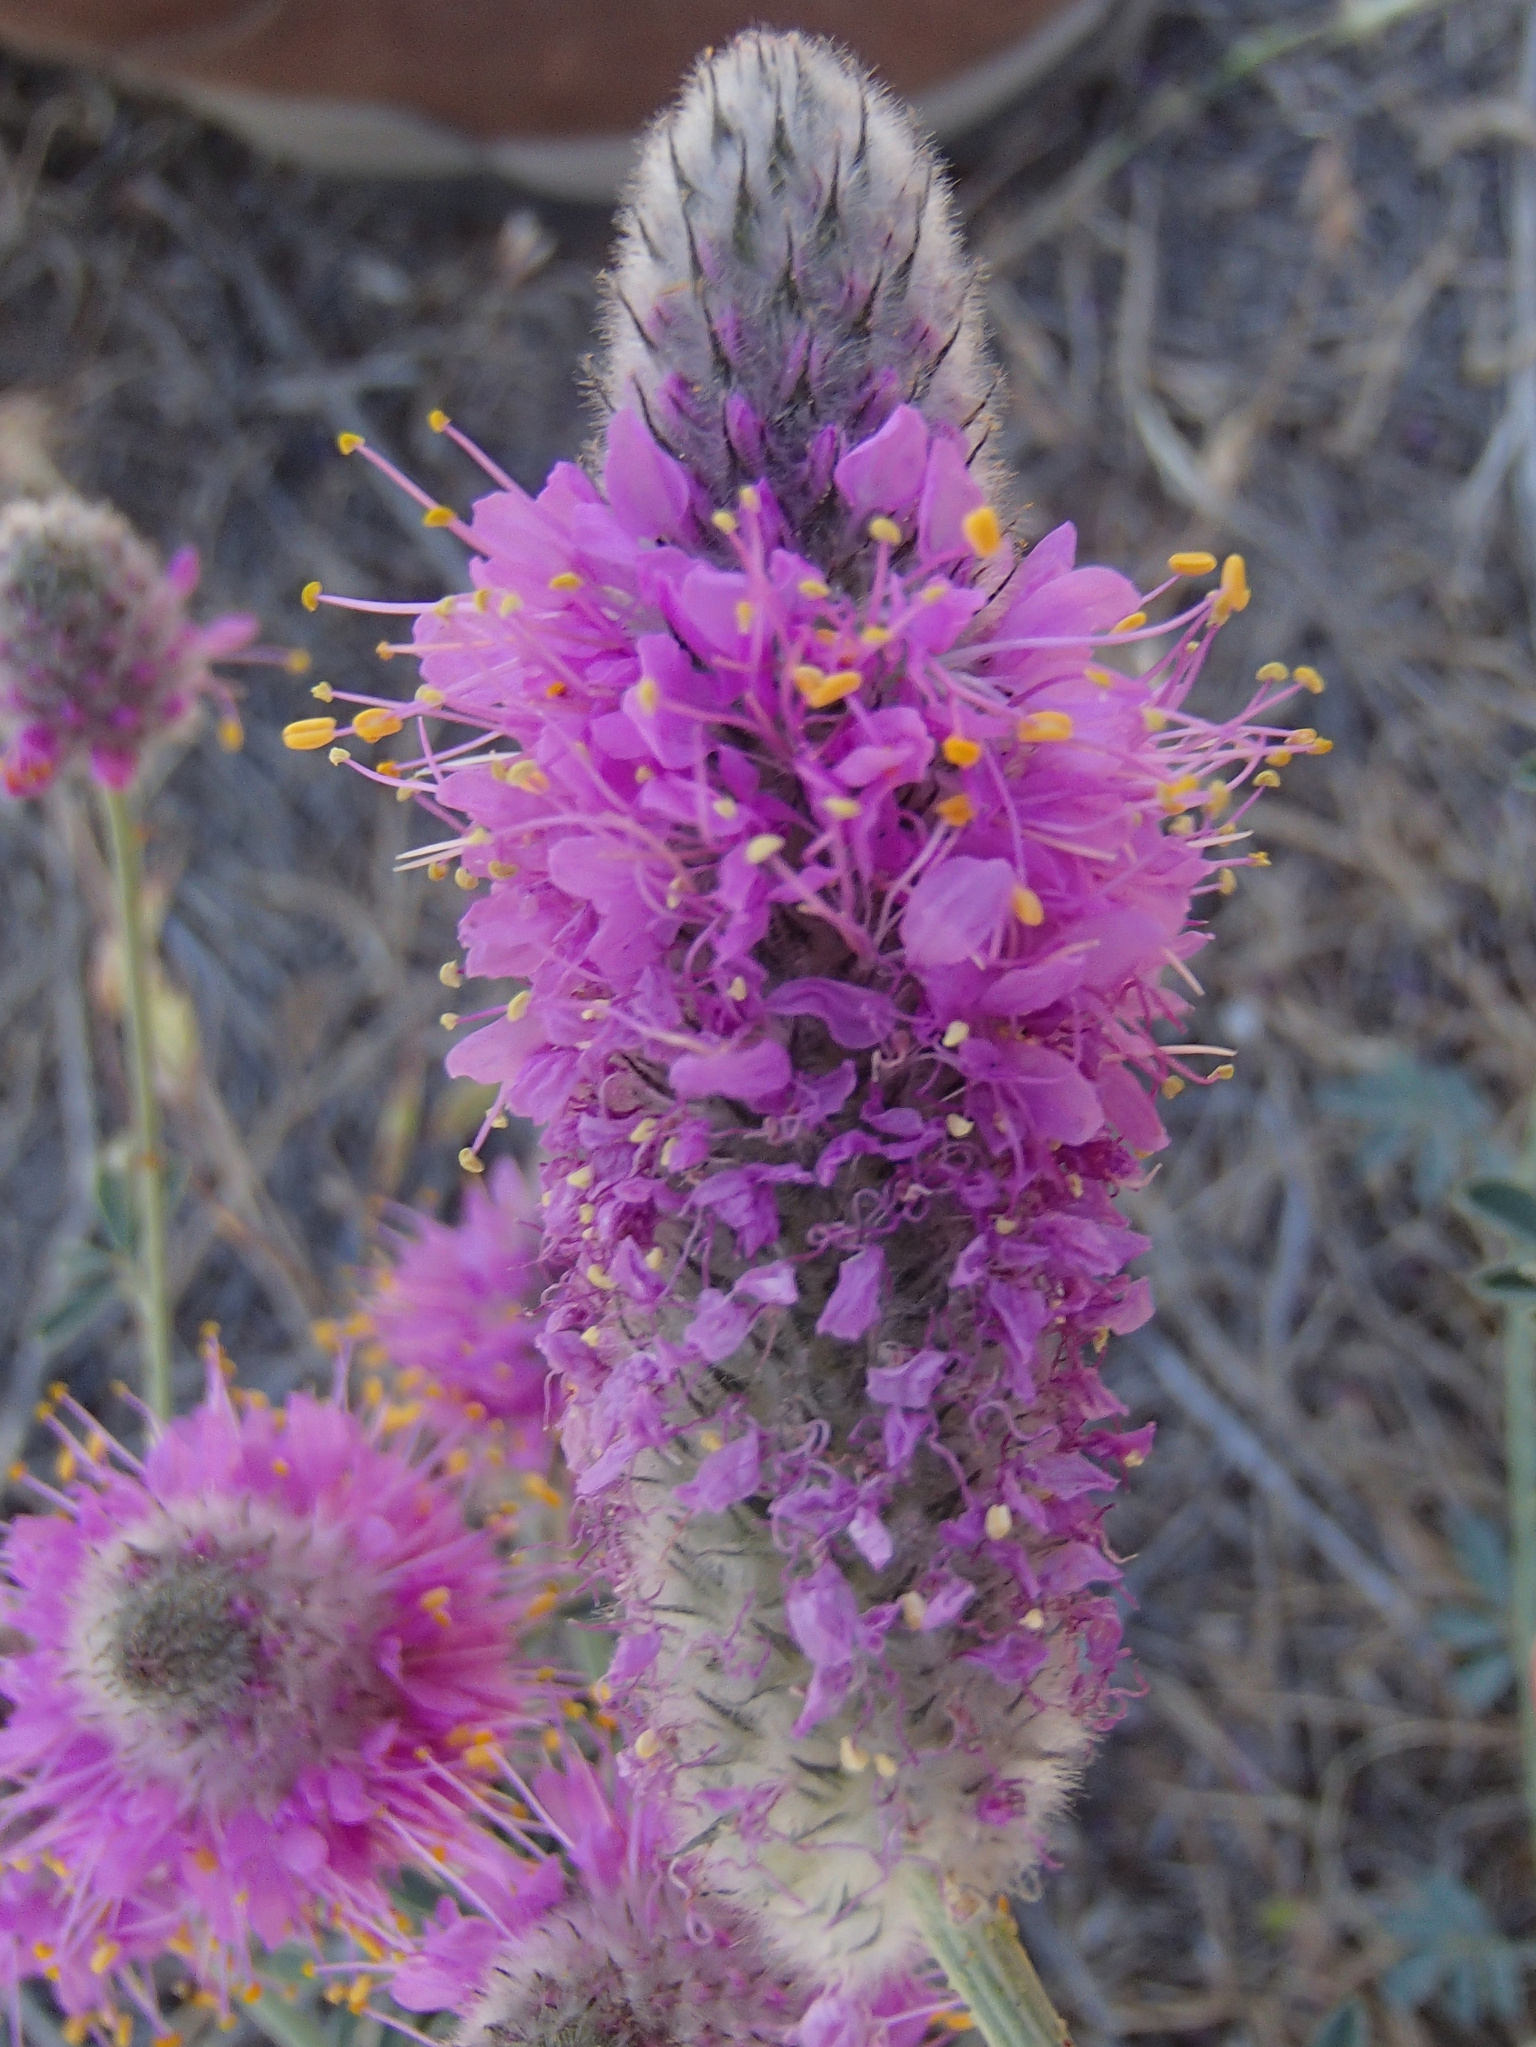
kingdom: Plantae
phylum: Tracheophyta
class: Magnoliopsida
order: Fabales
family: Fabaceae
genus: Dalea
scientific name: Dalea ornata
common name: Blue mountain prairie-clover
